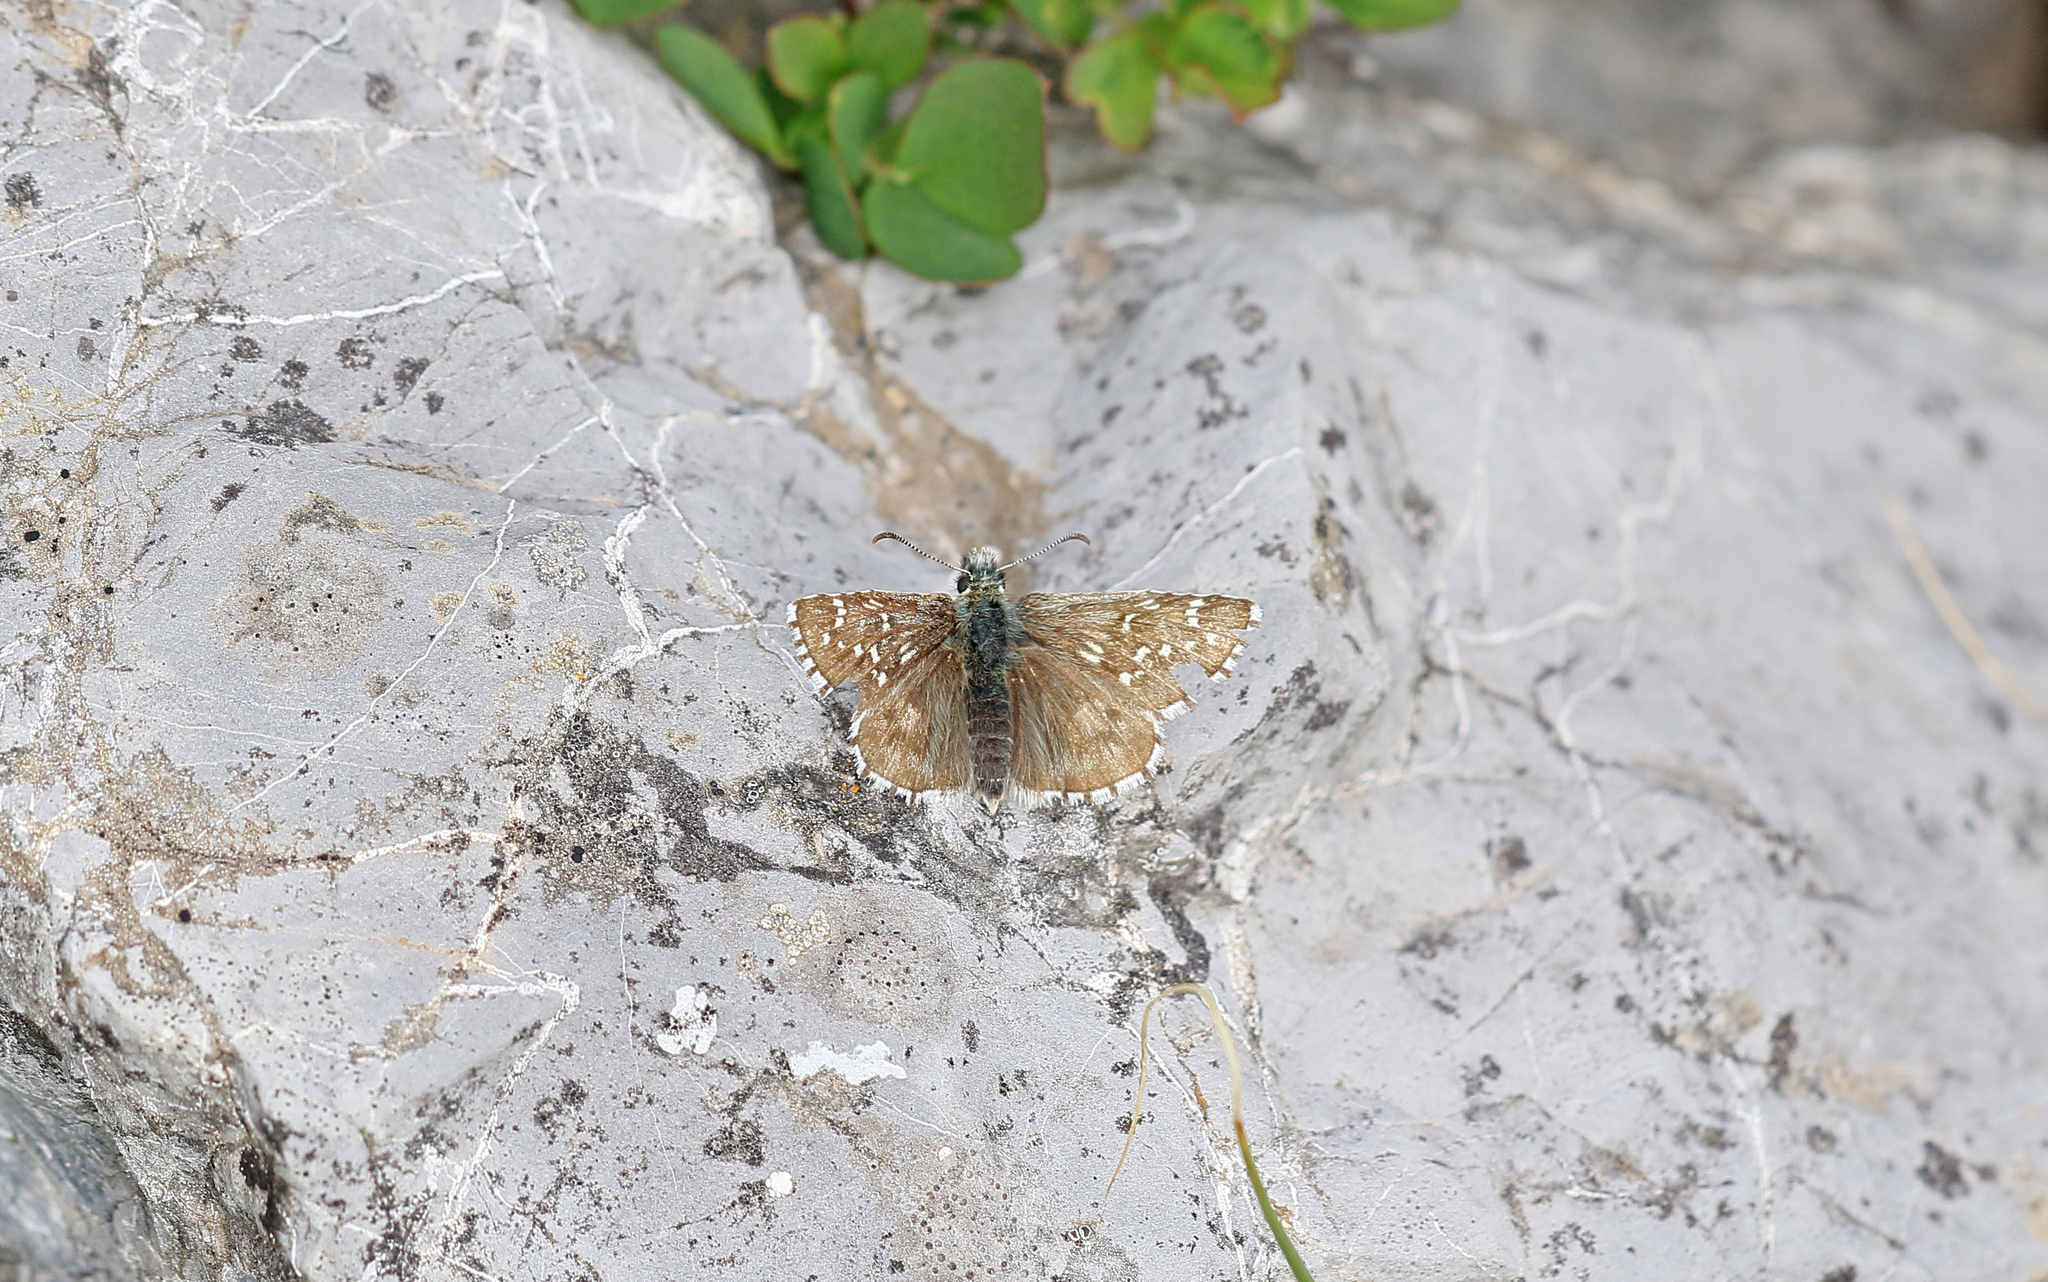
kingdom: Animalia
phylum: Arthropoda
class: Insecta
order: Lepidoptera
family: Hesperiidae
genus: Pyrgus
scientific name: Pyrgus andromedae
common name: Alpine grizzled skipper
